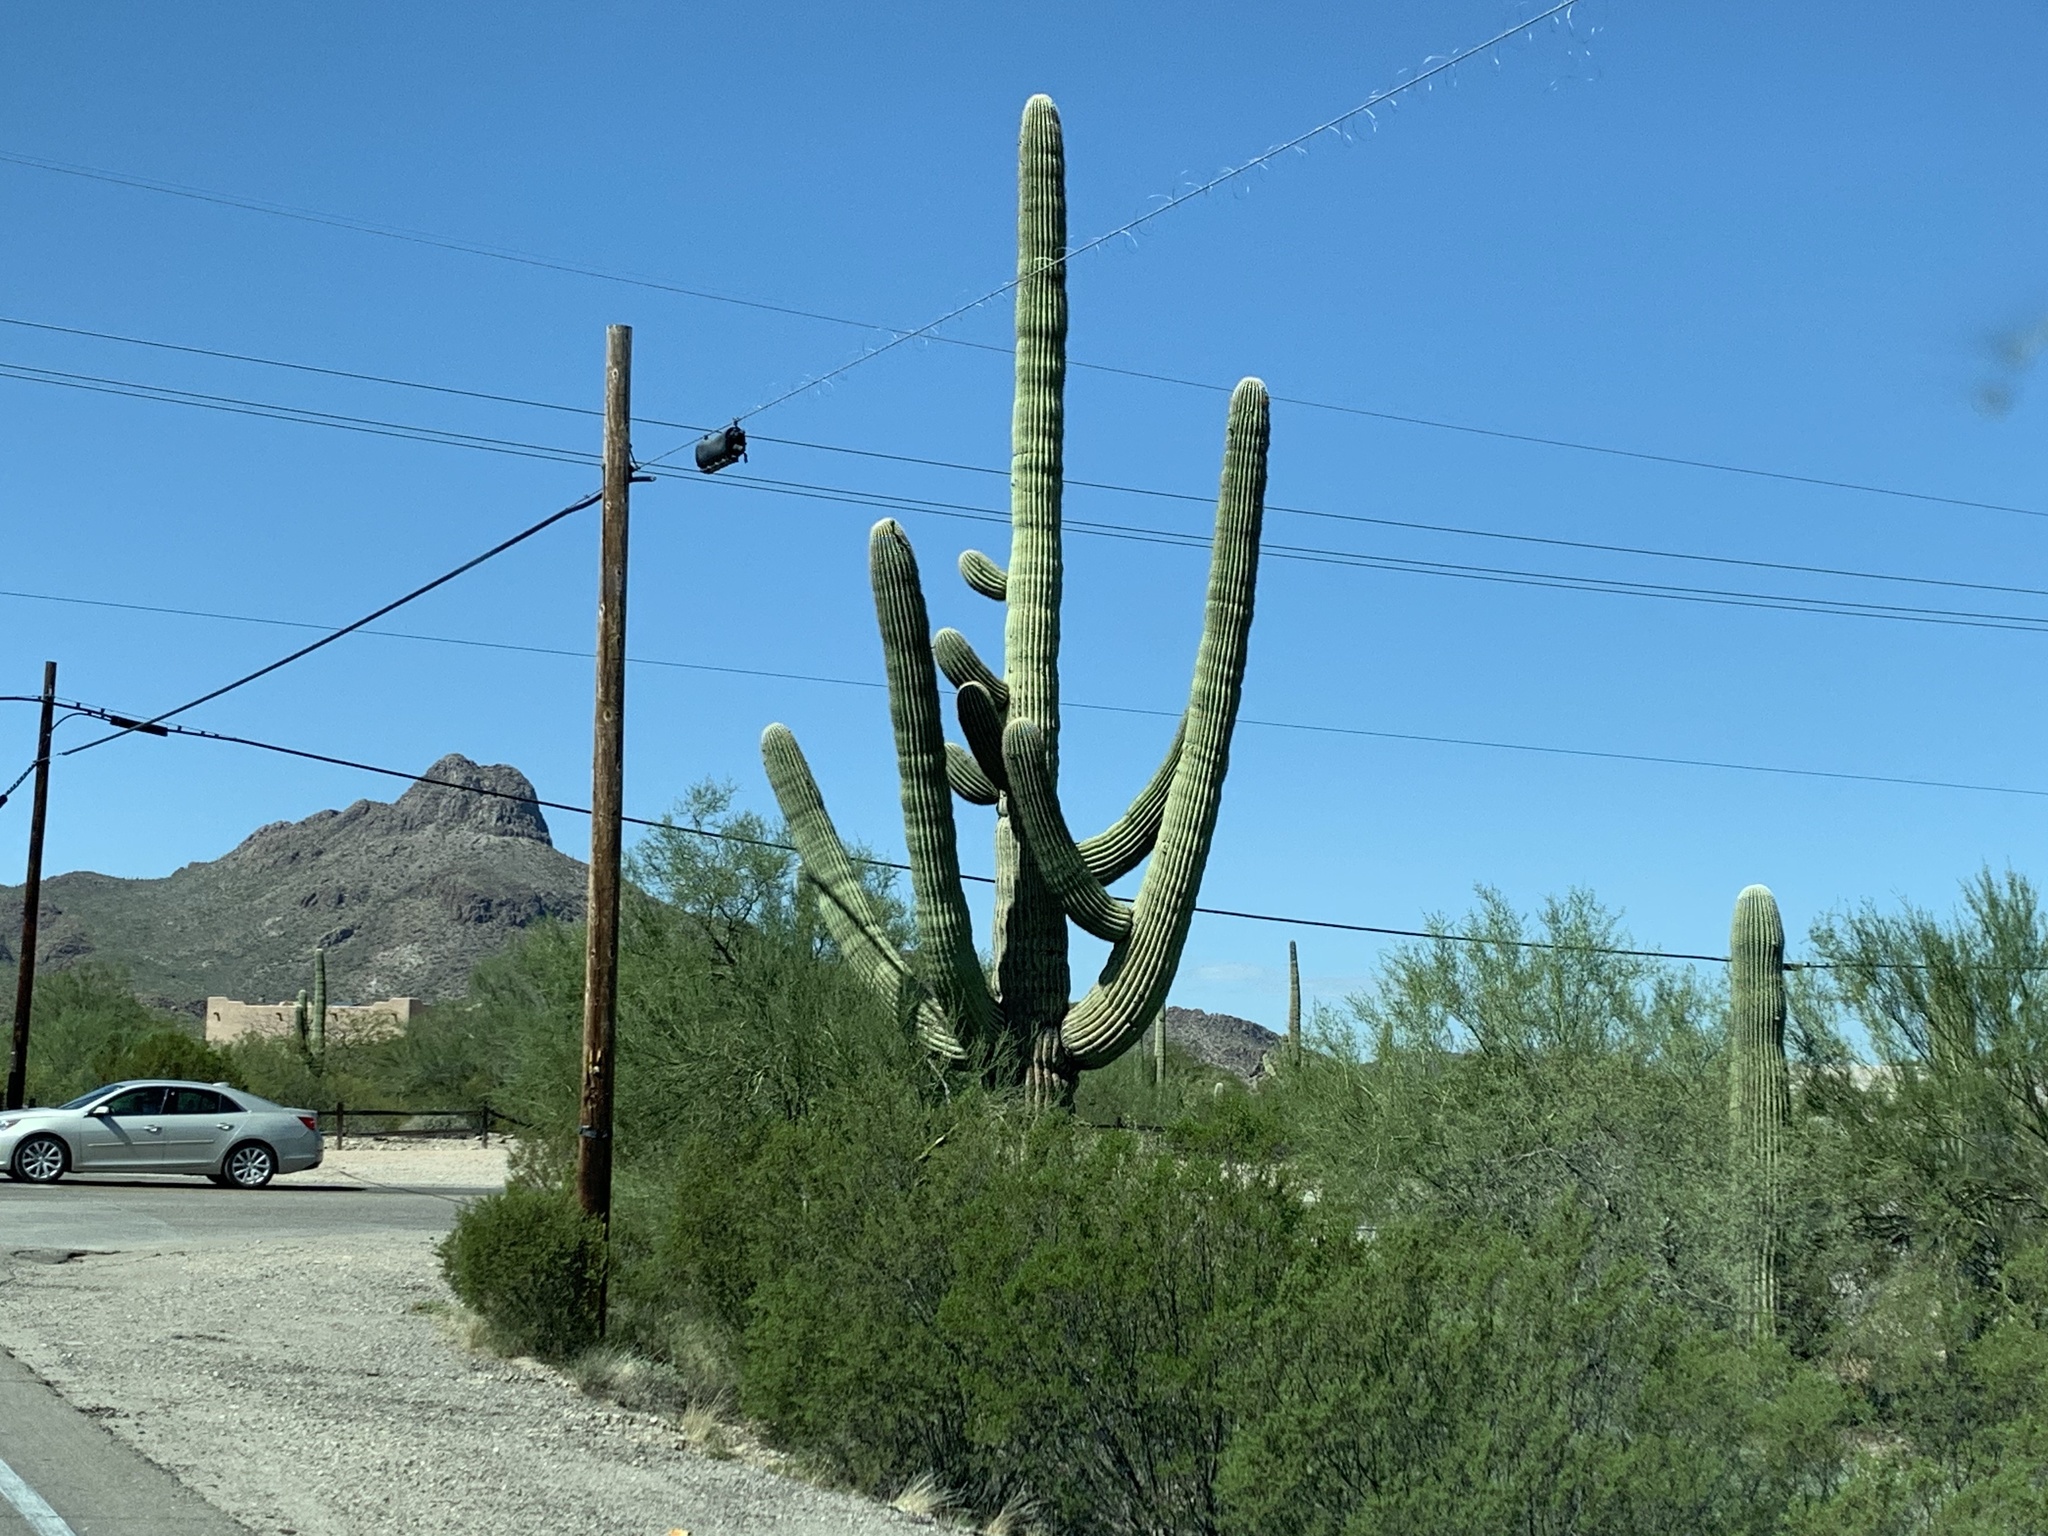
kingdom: Plantae
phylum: Tracheophyta
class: Magnoliopsida
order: Caryophyllales
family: Cactaceae
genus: Carnegiea
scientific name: Carnegiea gigantea
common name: Saguaro
